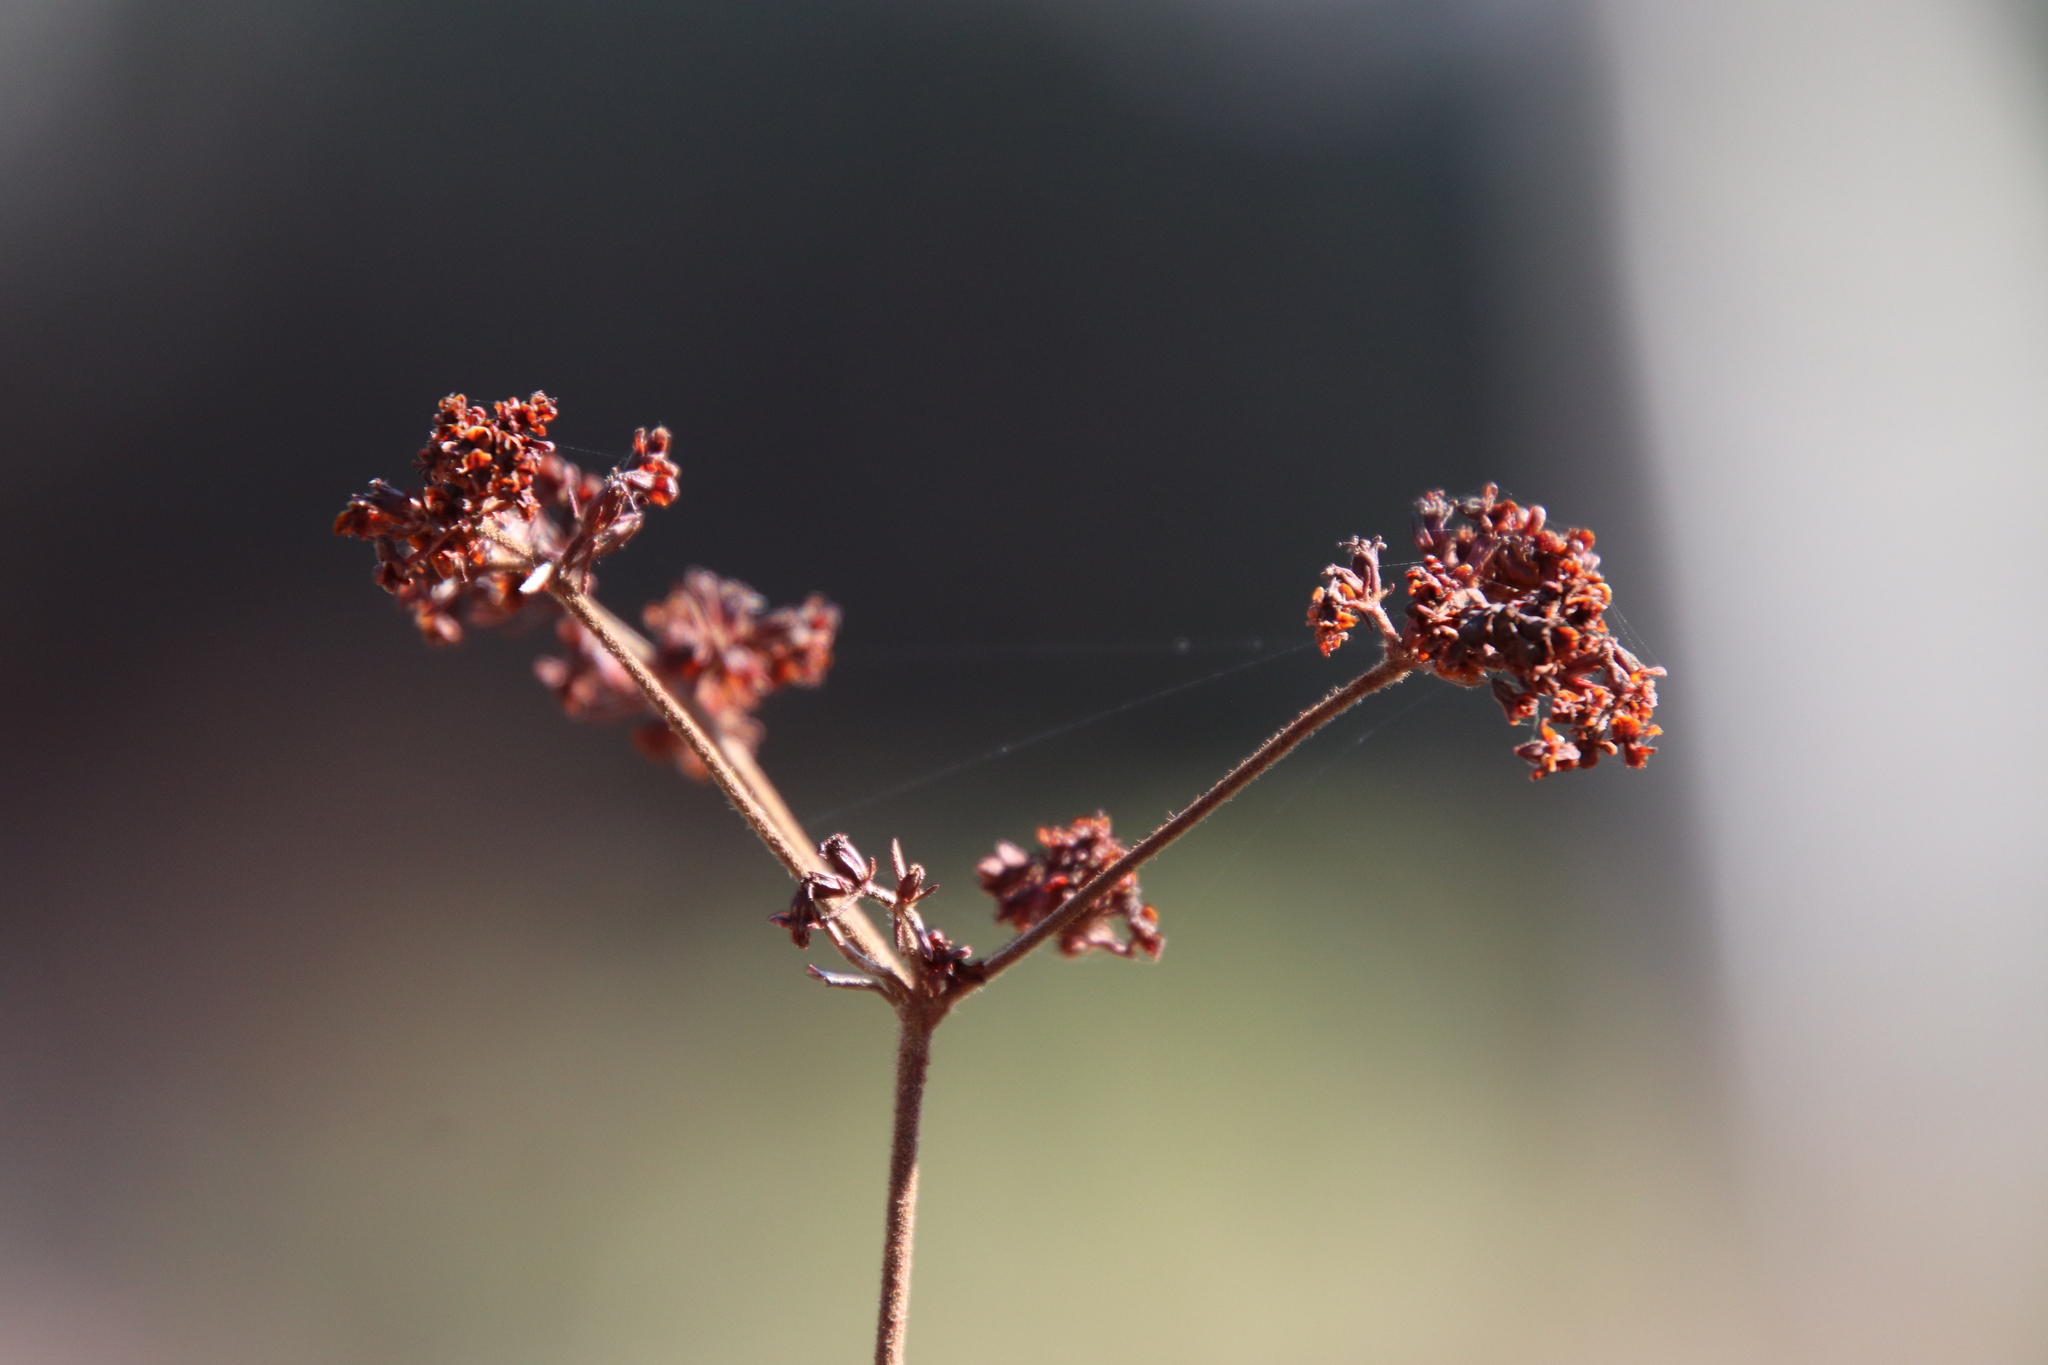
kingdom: Plantae
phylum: Tracheophyta
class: Magnoliopsida
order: Caryophyllales
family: Polygonaceae
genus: Eriogonum
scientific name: Eriogonum fasciculatum
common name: California wild buckwheat
